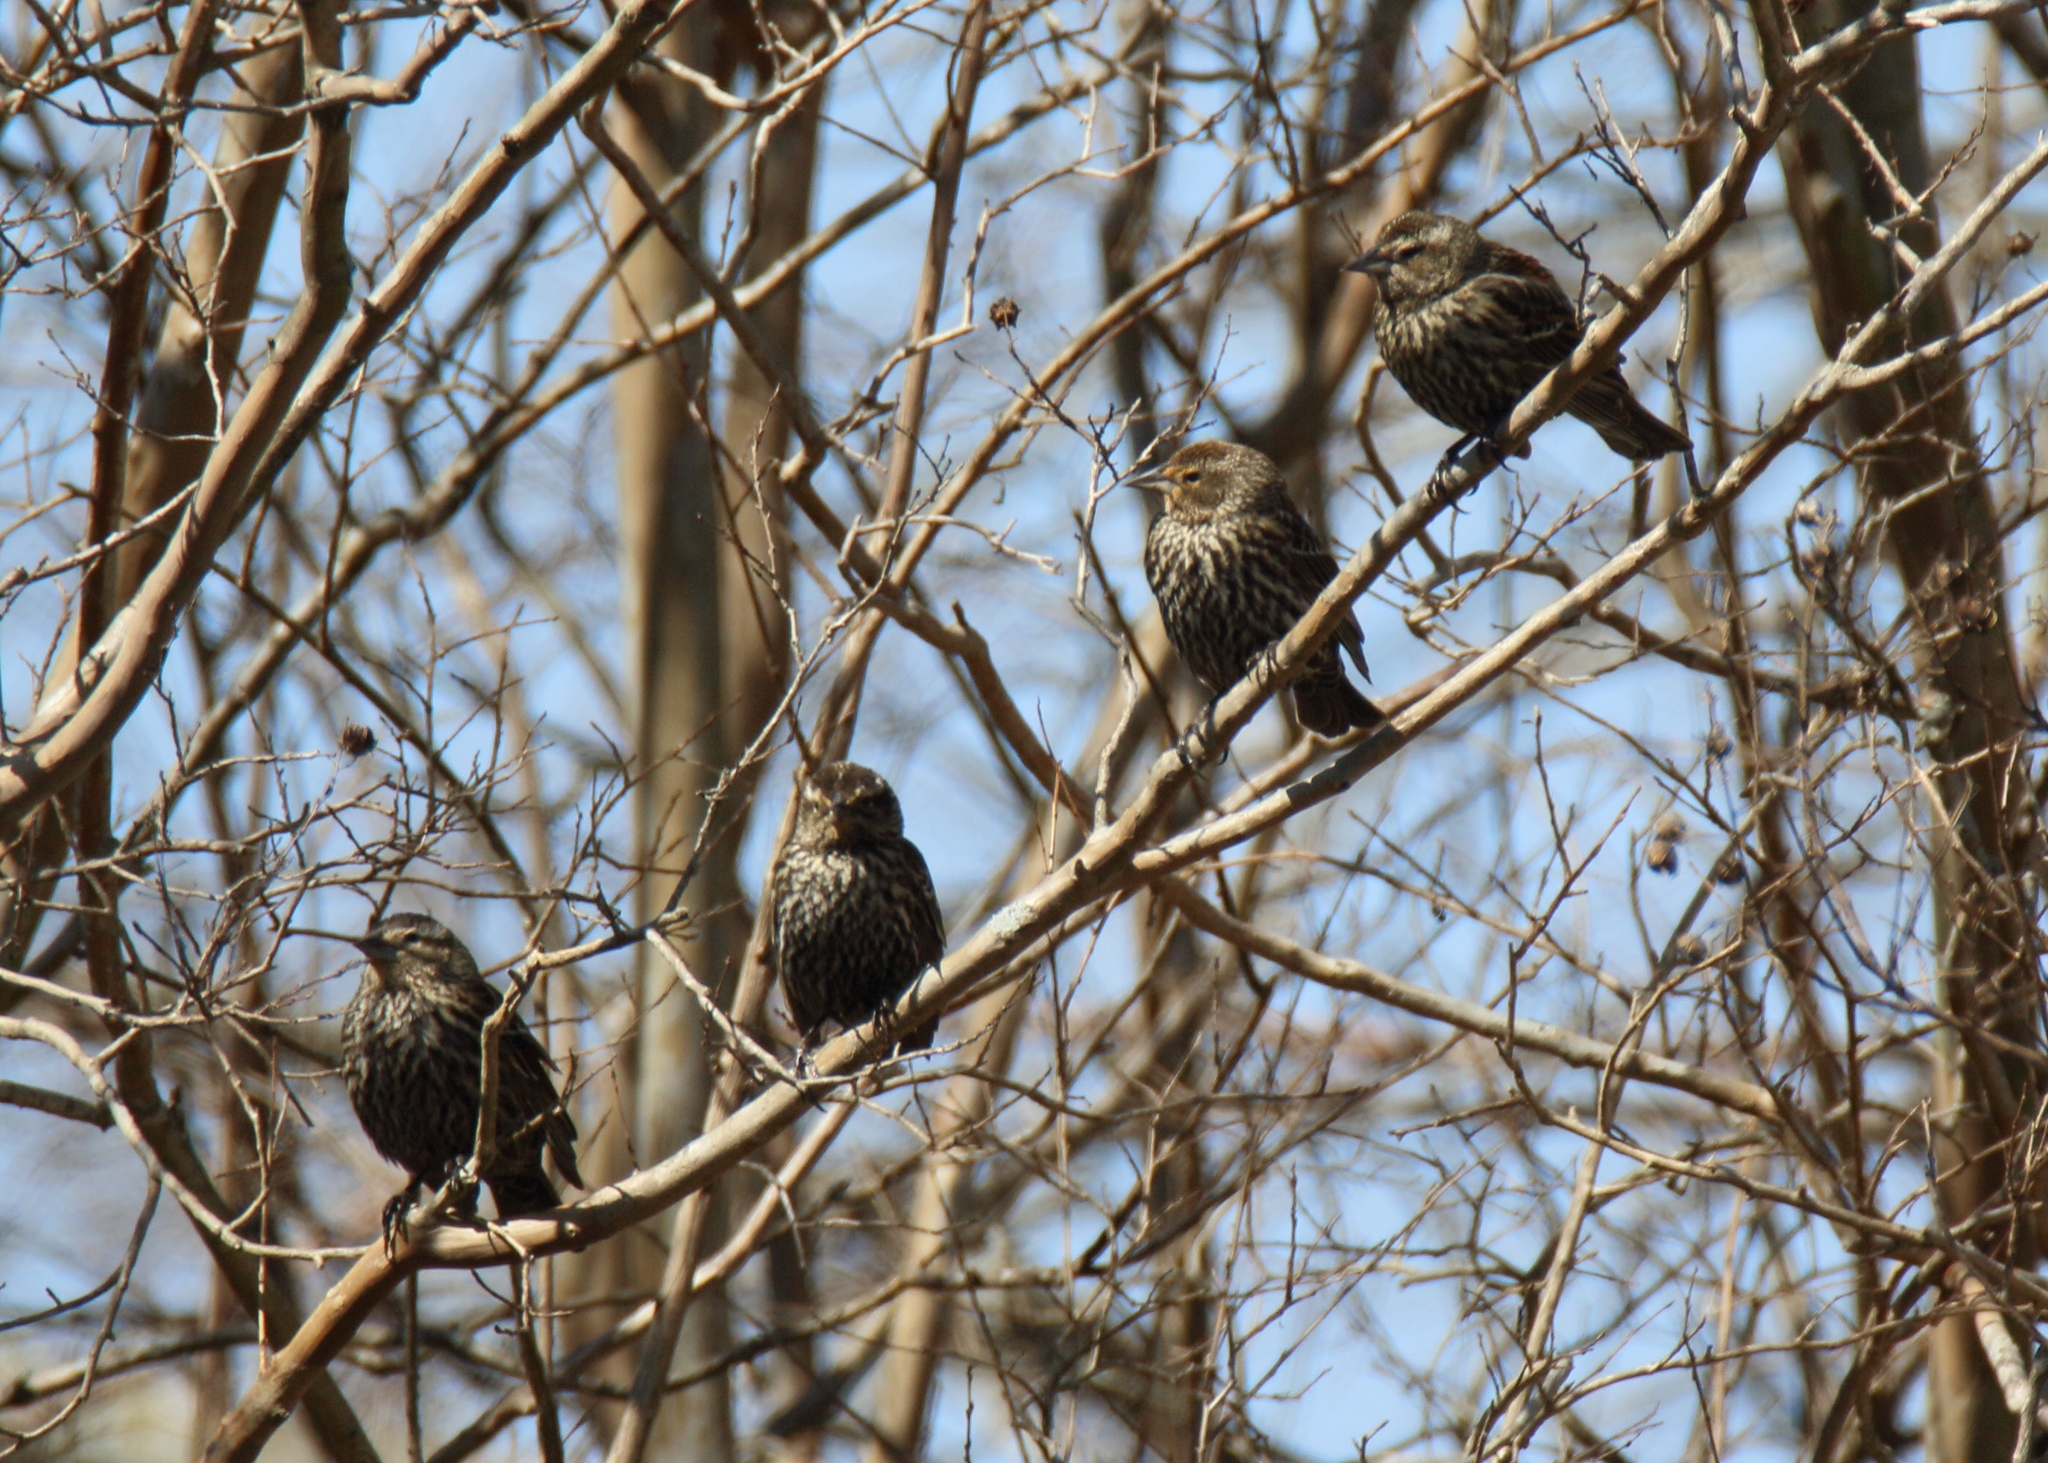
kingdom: Animalia
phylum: Chordata
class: Aves
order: Passeriformes
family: Icteridae
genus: Agelaius
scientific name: Agelaius phoeniceus
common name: Red-winged blackbird
